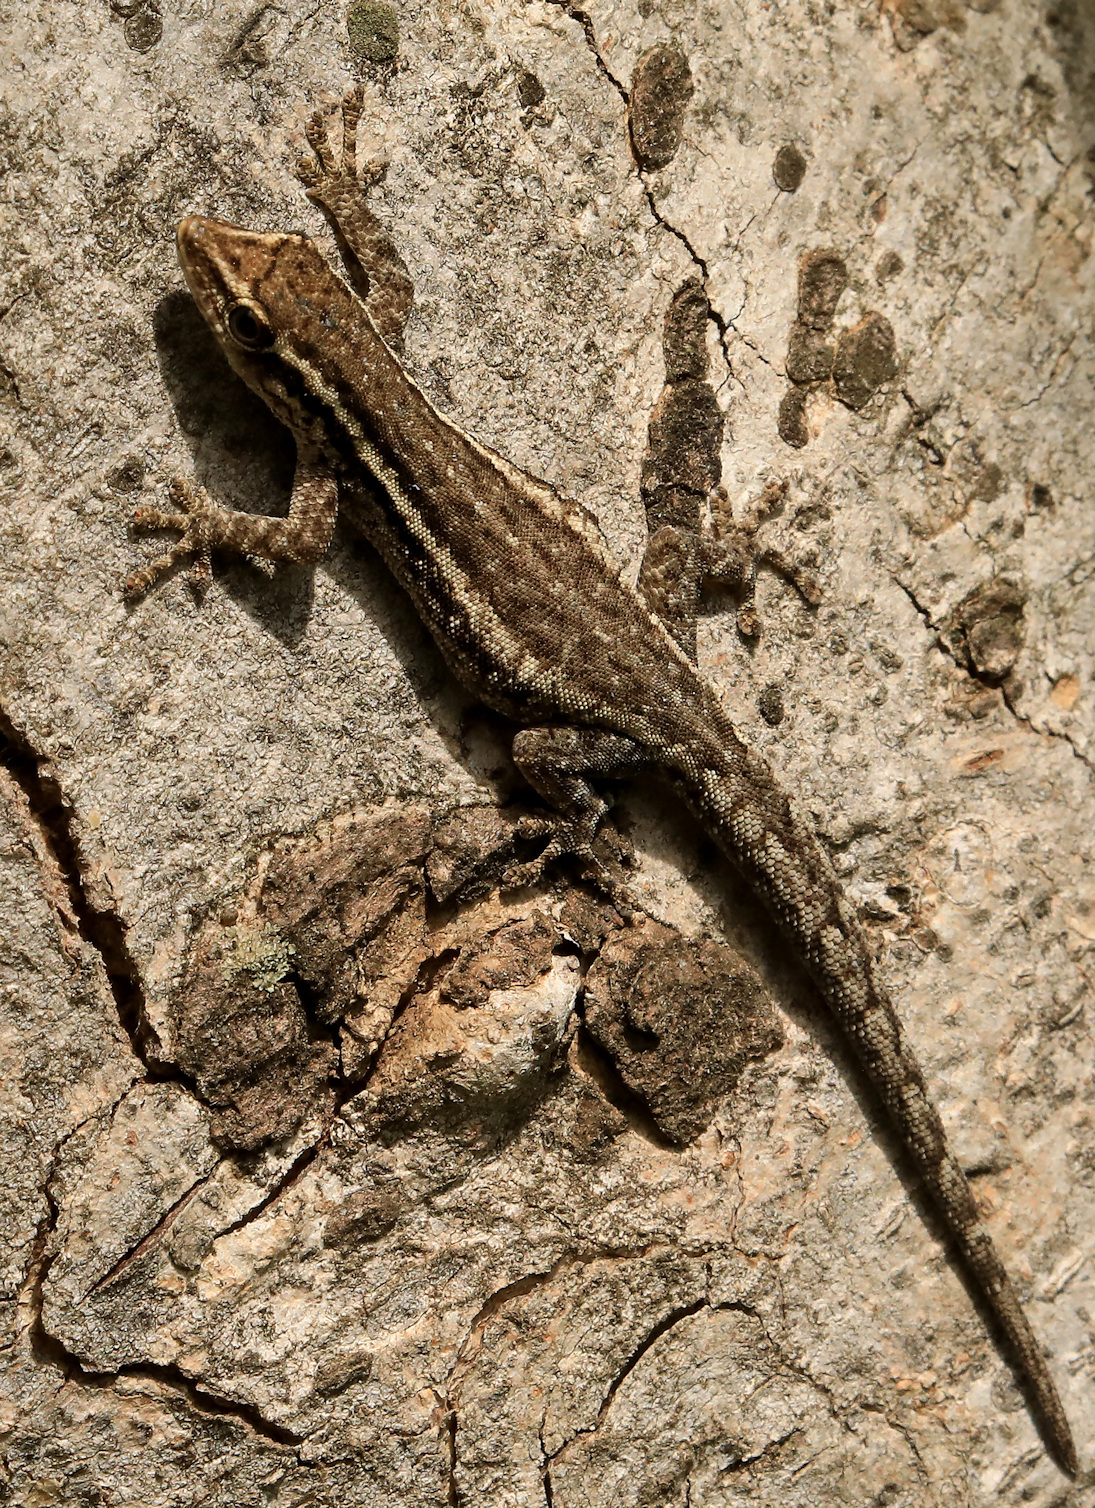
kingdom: Animalia
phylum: Chordata
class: Squamata
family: Gekkonidae
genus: Lygodactylus
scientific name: Lygodactylus capensis
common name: Cape dwarf gecko
